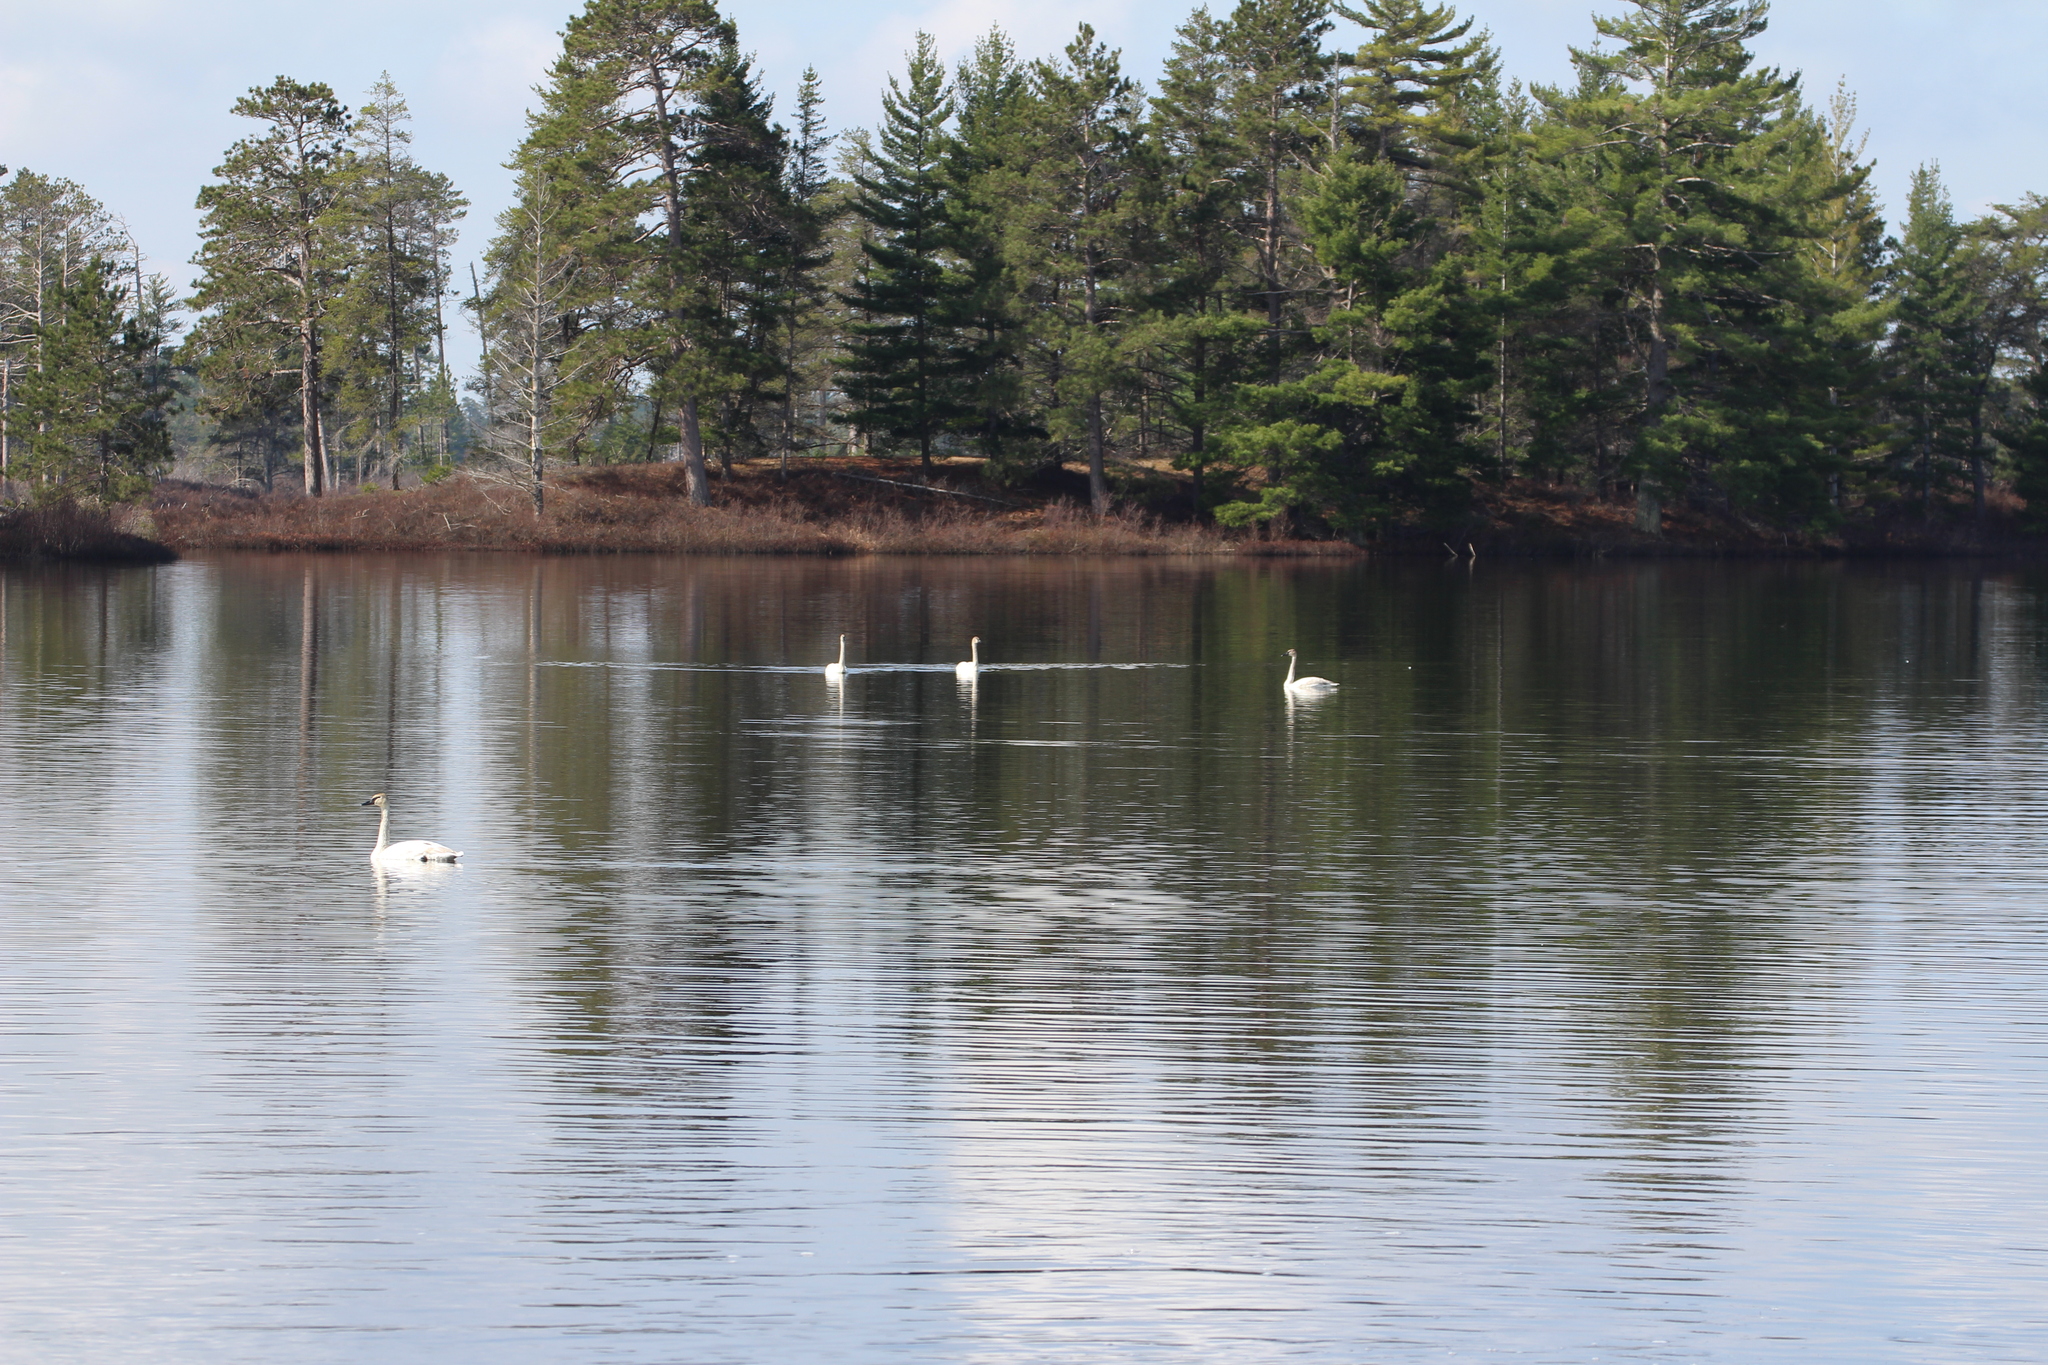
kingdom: Animalia
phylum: Chordata
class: Aves
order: Anseriformes
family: Anatidae
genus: Cygnus
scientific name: Cygnus buccinator
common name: Trumpeter swan
